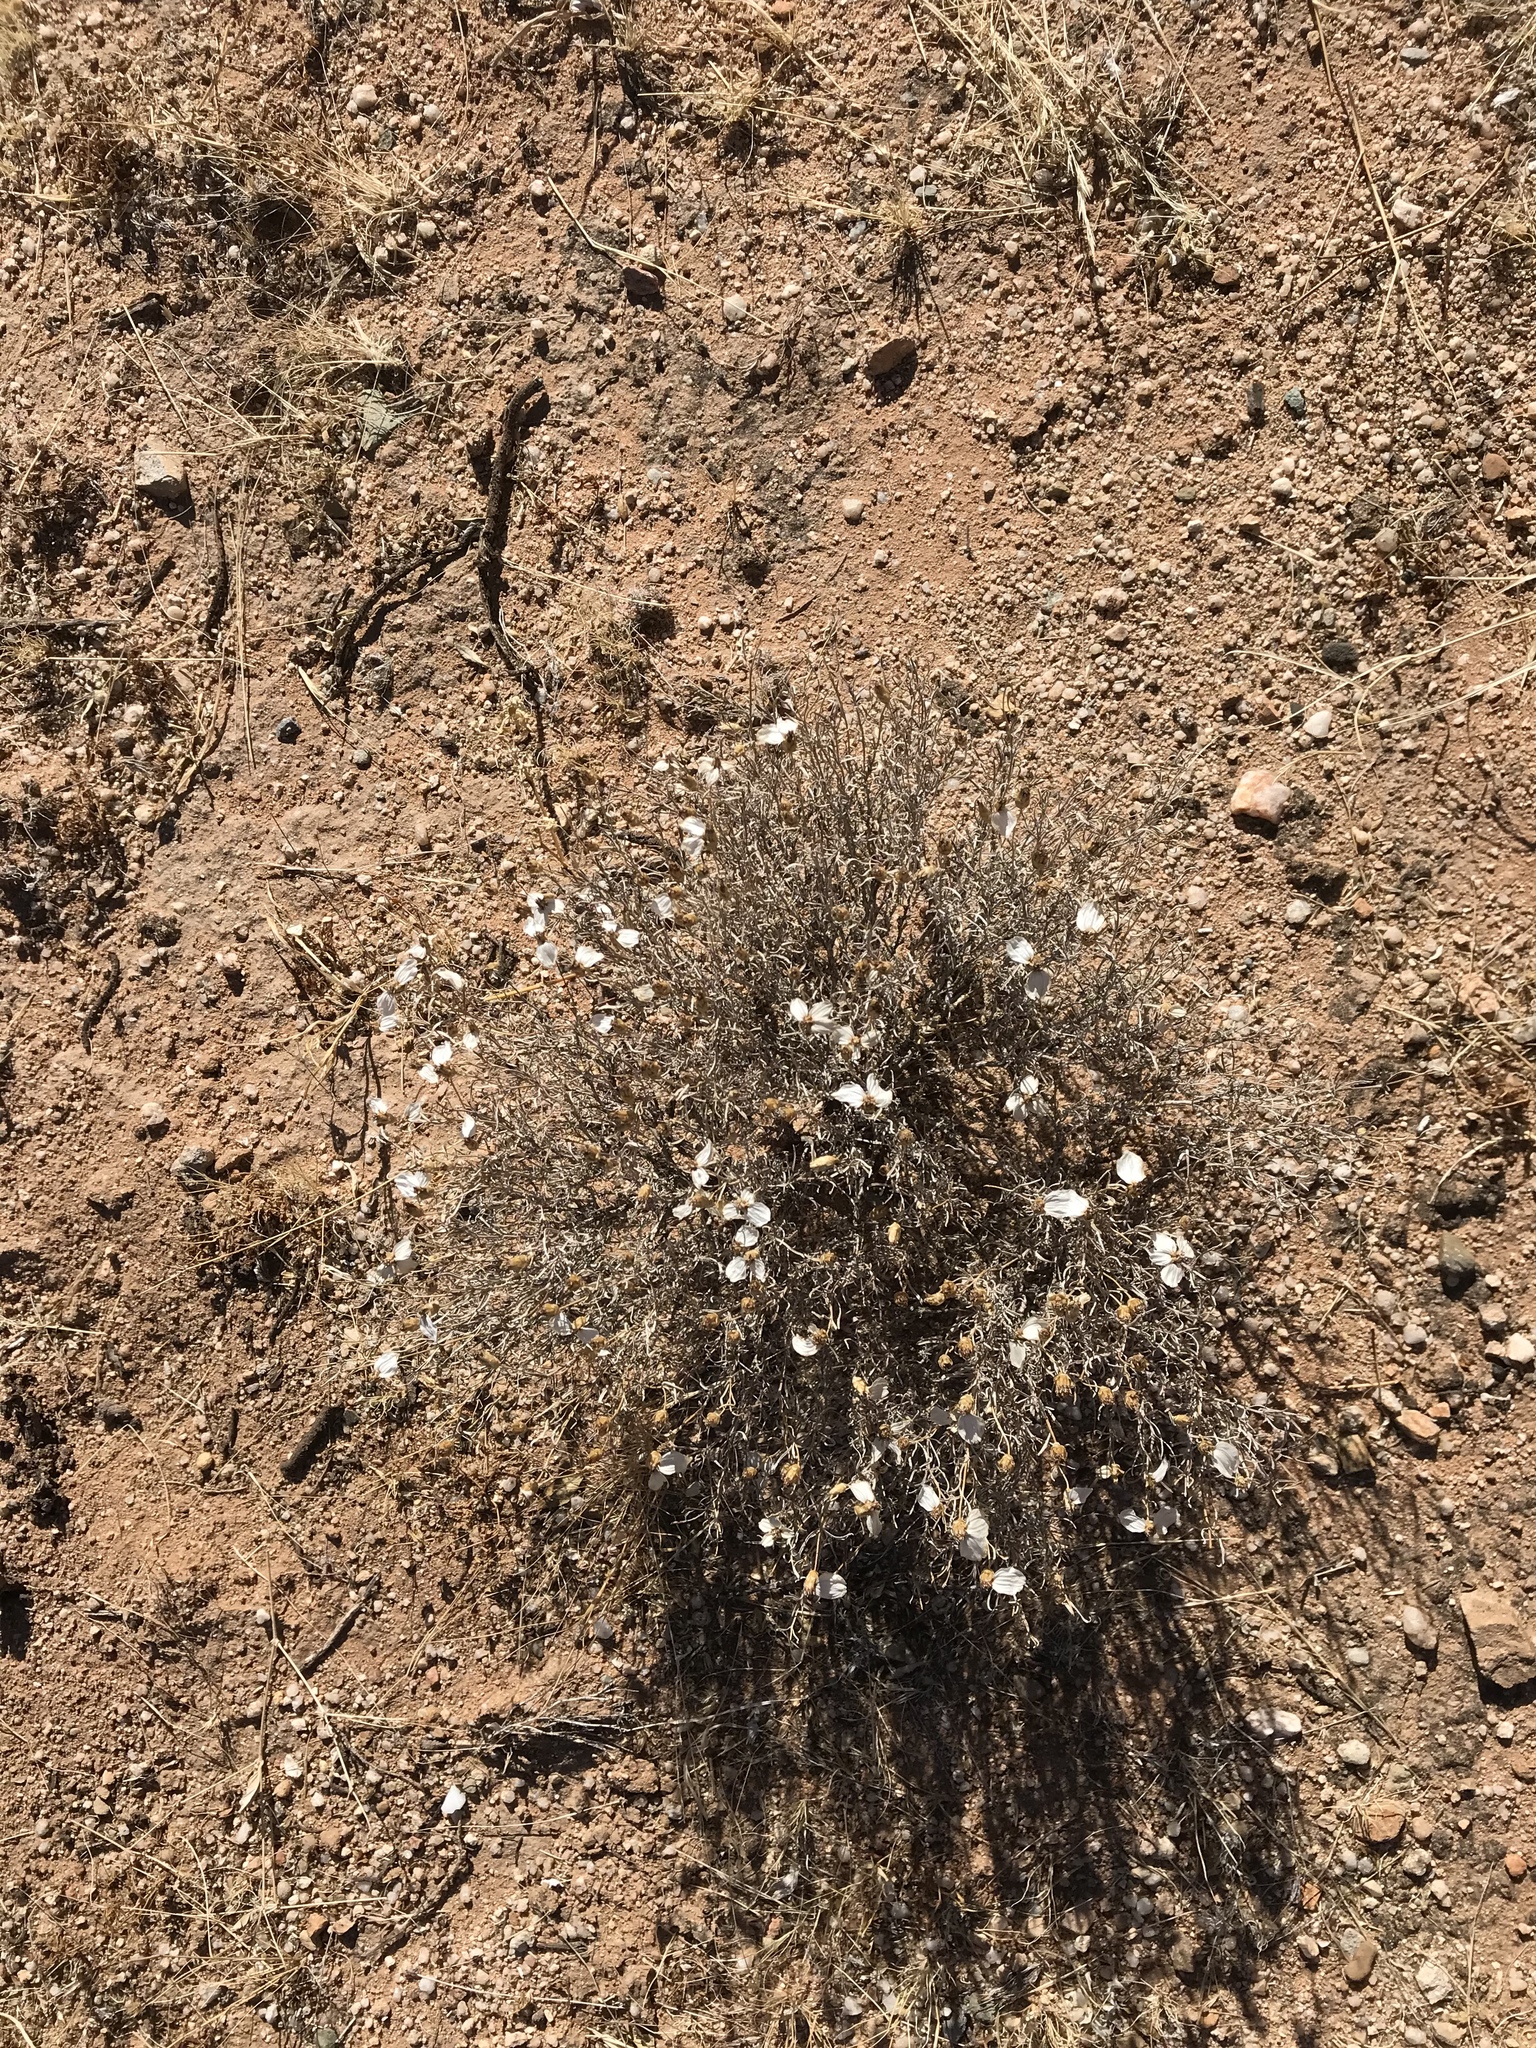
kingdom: Plantae
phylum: Tracheophyta
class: Magnoliopsida
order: Asterales
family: Asteraceae
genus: Zinnia
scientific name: Zinnia acerosa
